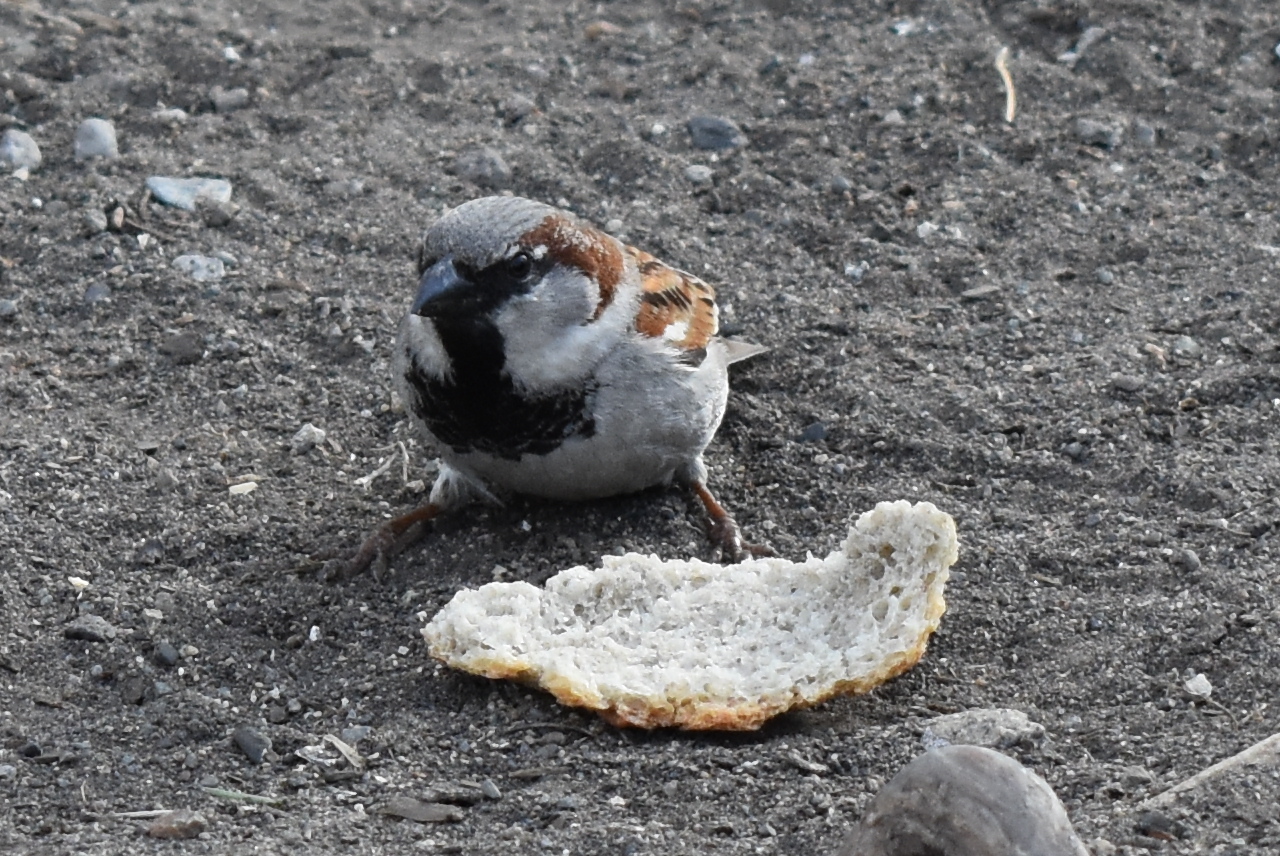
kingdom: Animalia
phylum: Chordata
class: Aves
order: Passeriformes
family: Passeridae
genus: Passer
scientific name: Passer domesticus
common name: House sparrow
